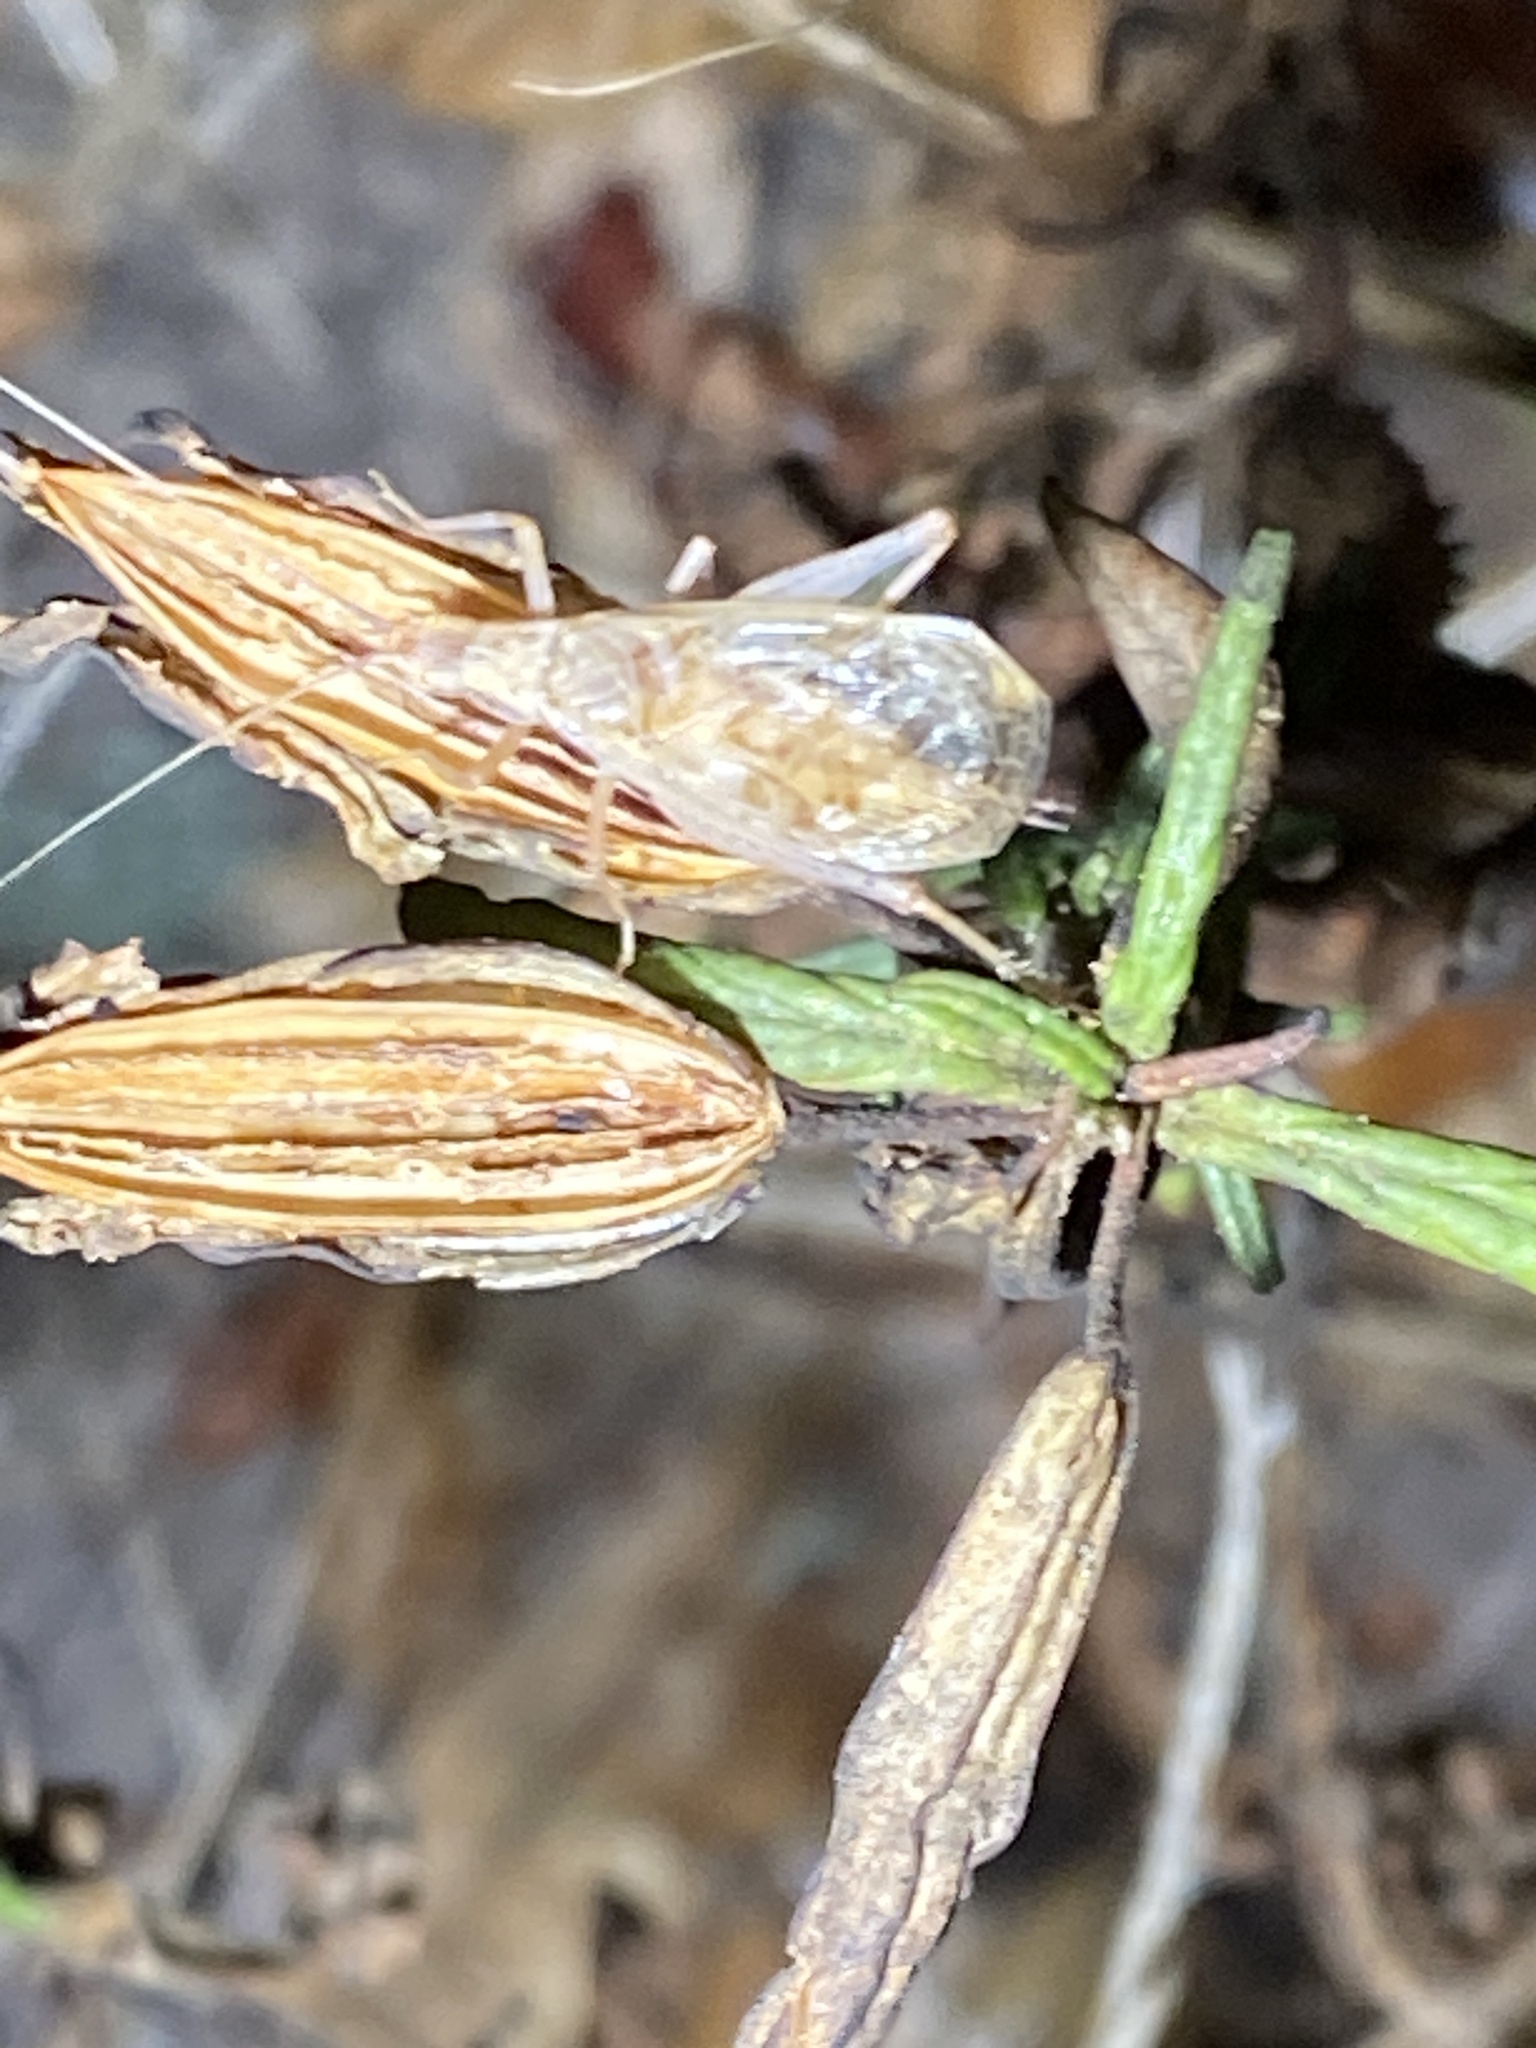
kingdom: Animalia
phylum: Arthropoda
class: Insecta
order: Orthoptera
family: Gryllidae
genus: Oecanthus
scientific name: Oecanthus californicus
